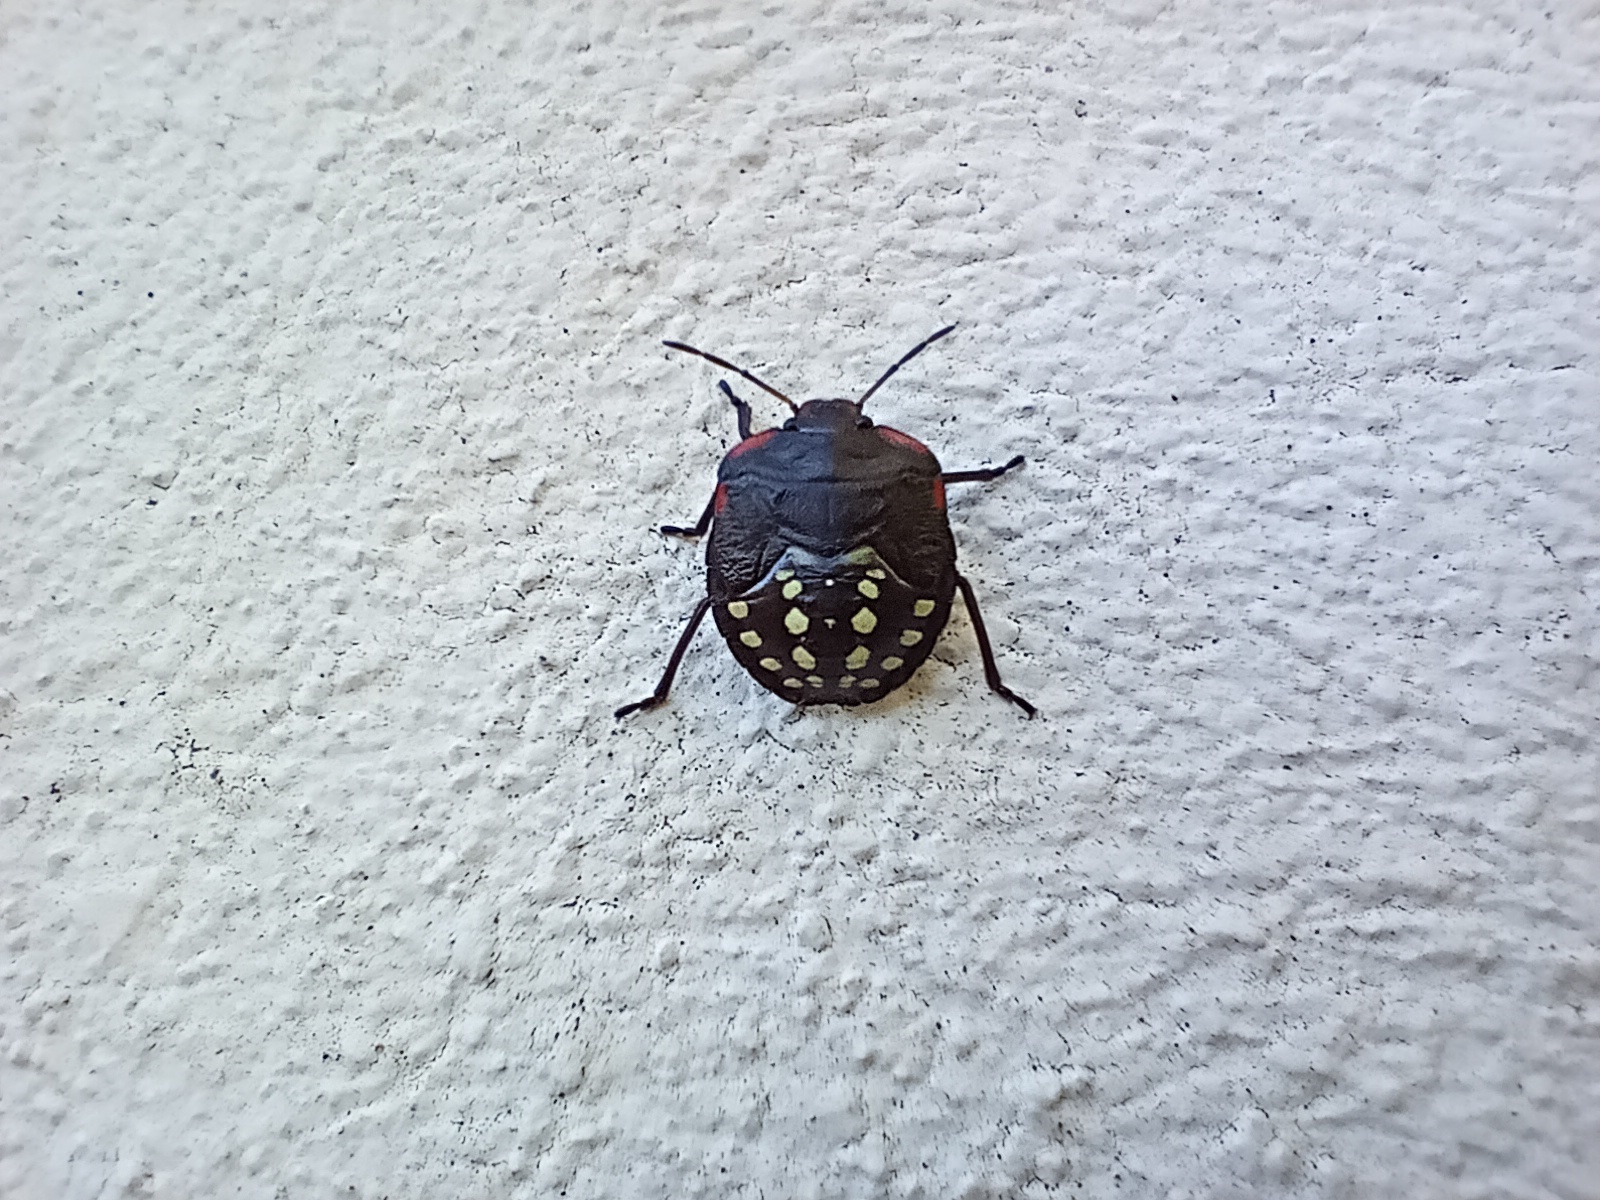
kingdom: Animalia
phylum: Arthropoda
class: Insecta
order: Hemiptera
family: Pentatomidae
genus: Nezara
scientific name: Nezara viridula
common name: Southern green stink bug
